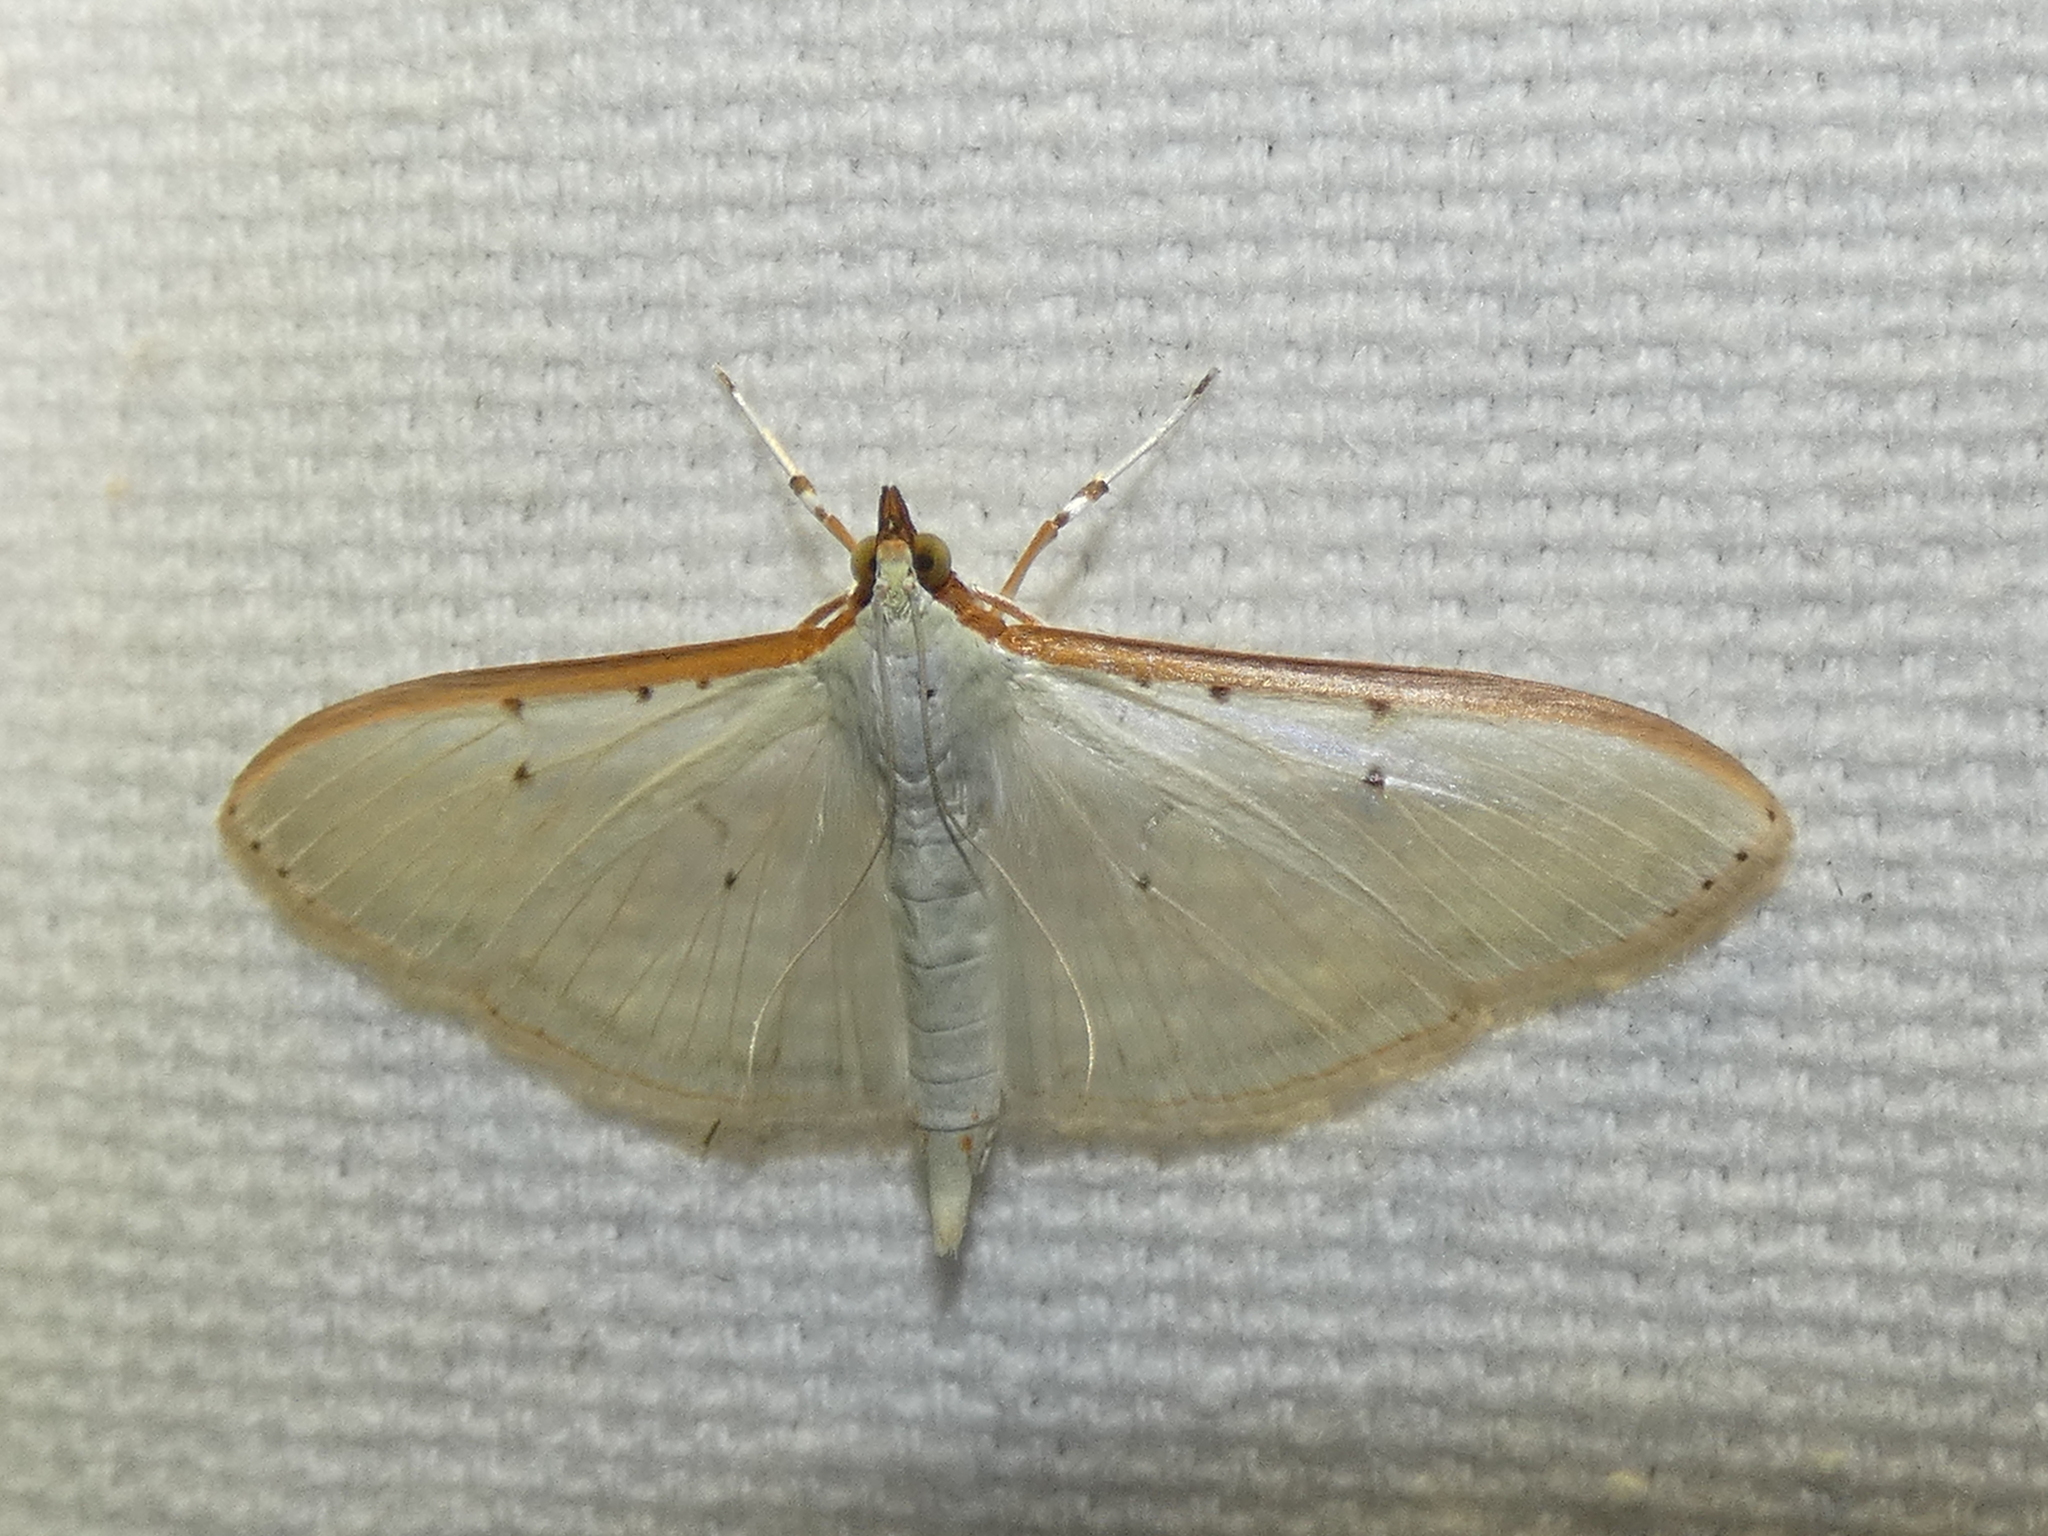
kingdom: Animalia
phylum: Arthropoda
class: Insecta
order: Lepidoptera
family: Crambidae
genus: Palpita
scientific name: Palpita quadristigmalis
